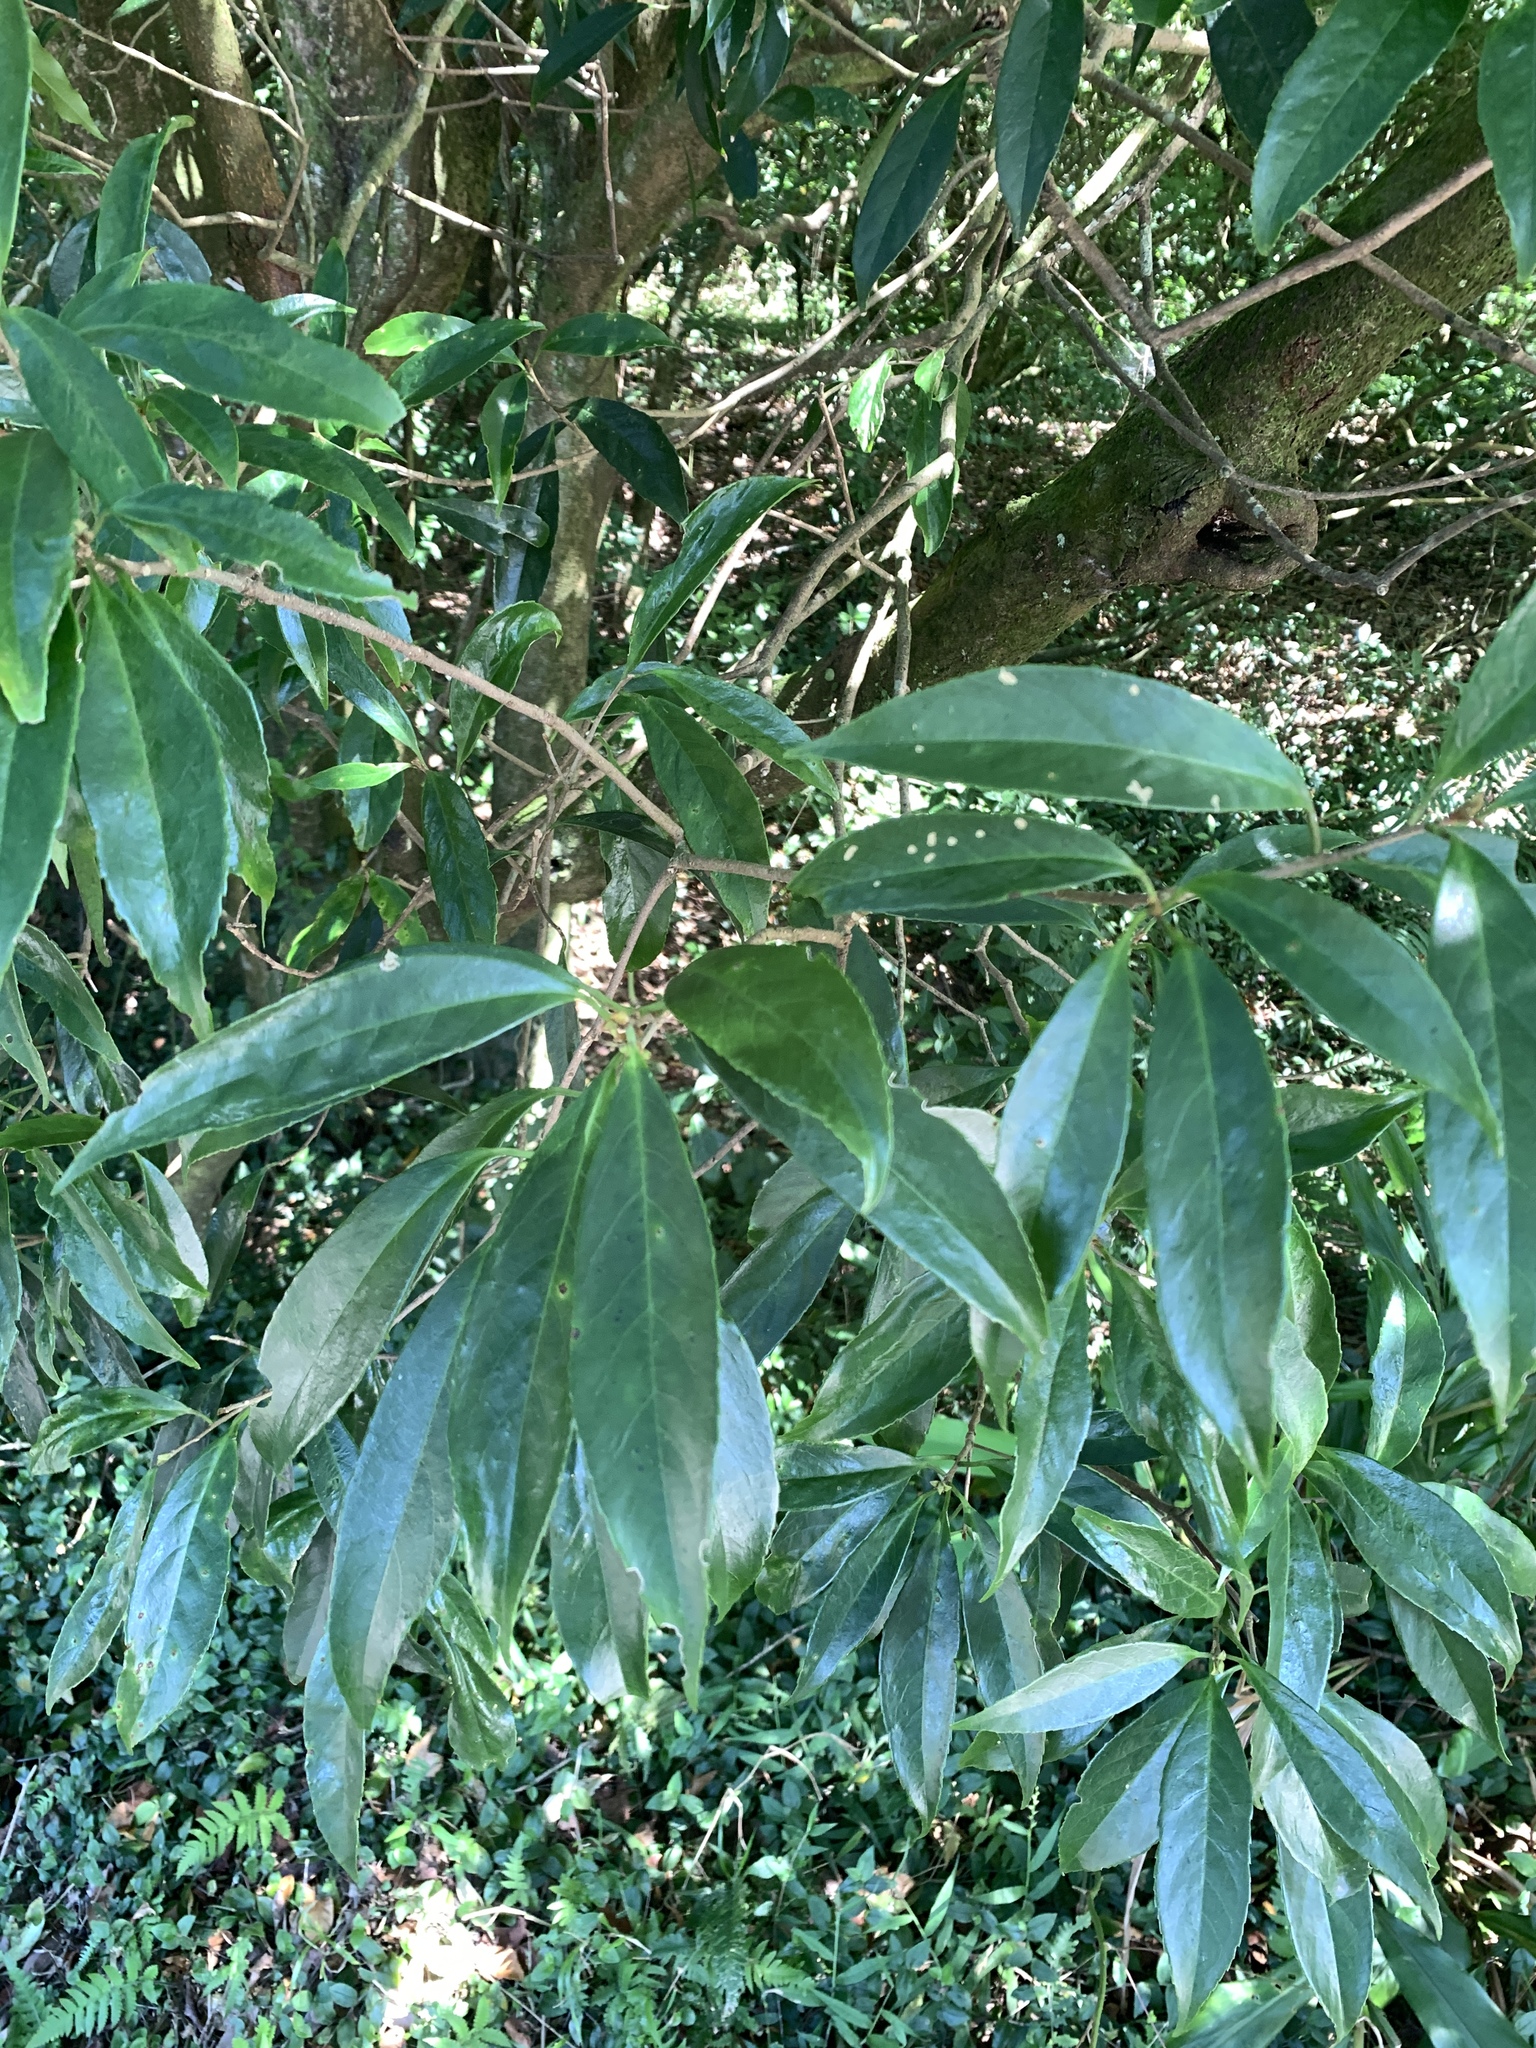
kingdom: Plantae
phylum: Tracheophyta
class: Magnoliopsida
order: Ericales
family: Symplocaceae
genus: Symplocos
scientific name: Symplocos acuminata
